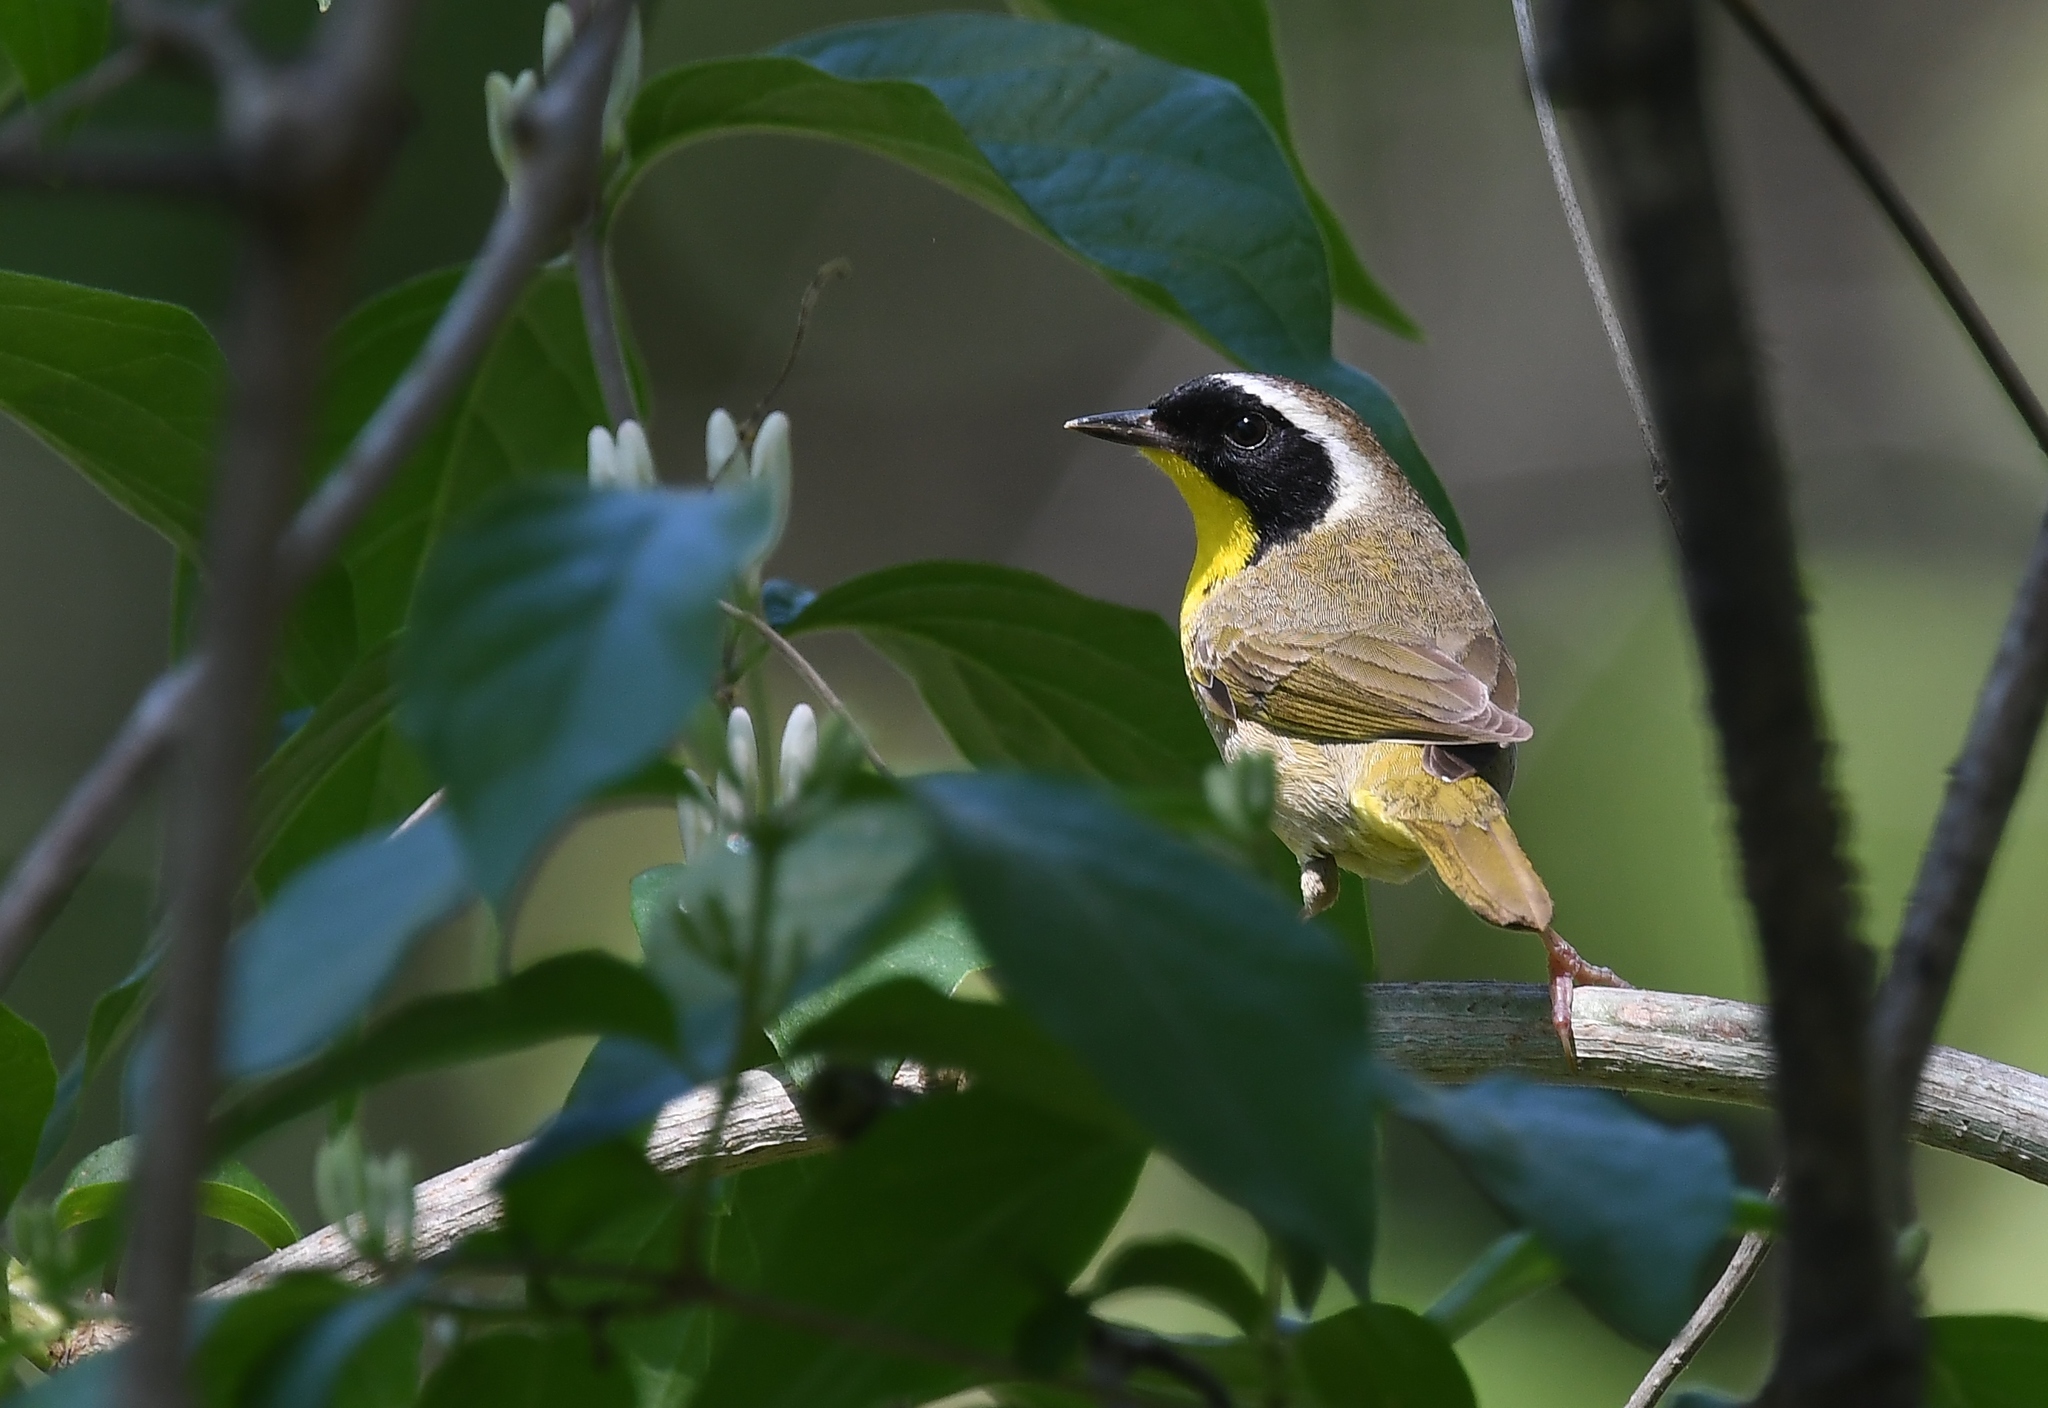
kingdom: Animalia
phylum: Chordata
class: Aves
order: Passeriformes
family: Parulidae
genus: Geothlypis
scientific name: Geothlypis trichas
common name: Common yellowthroat
